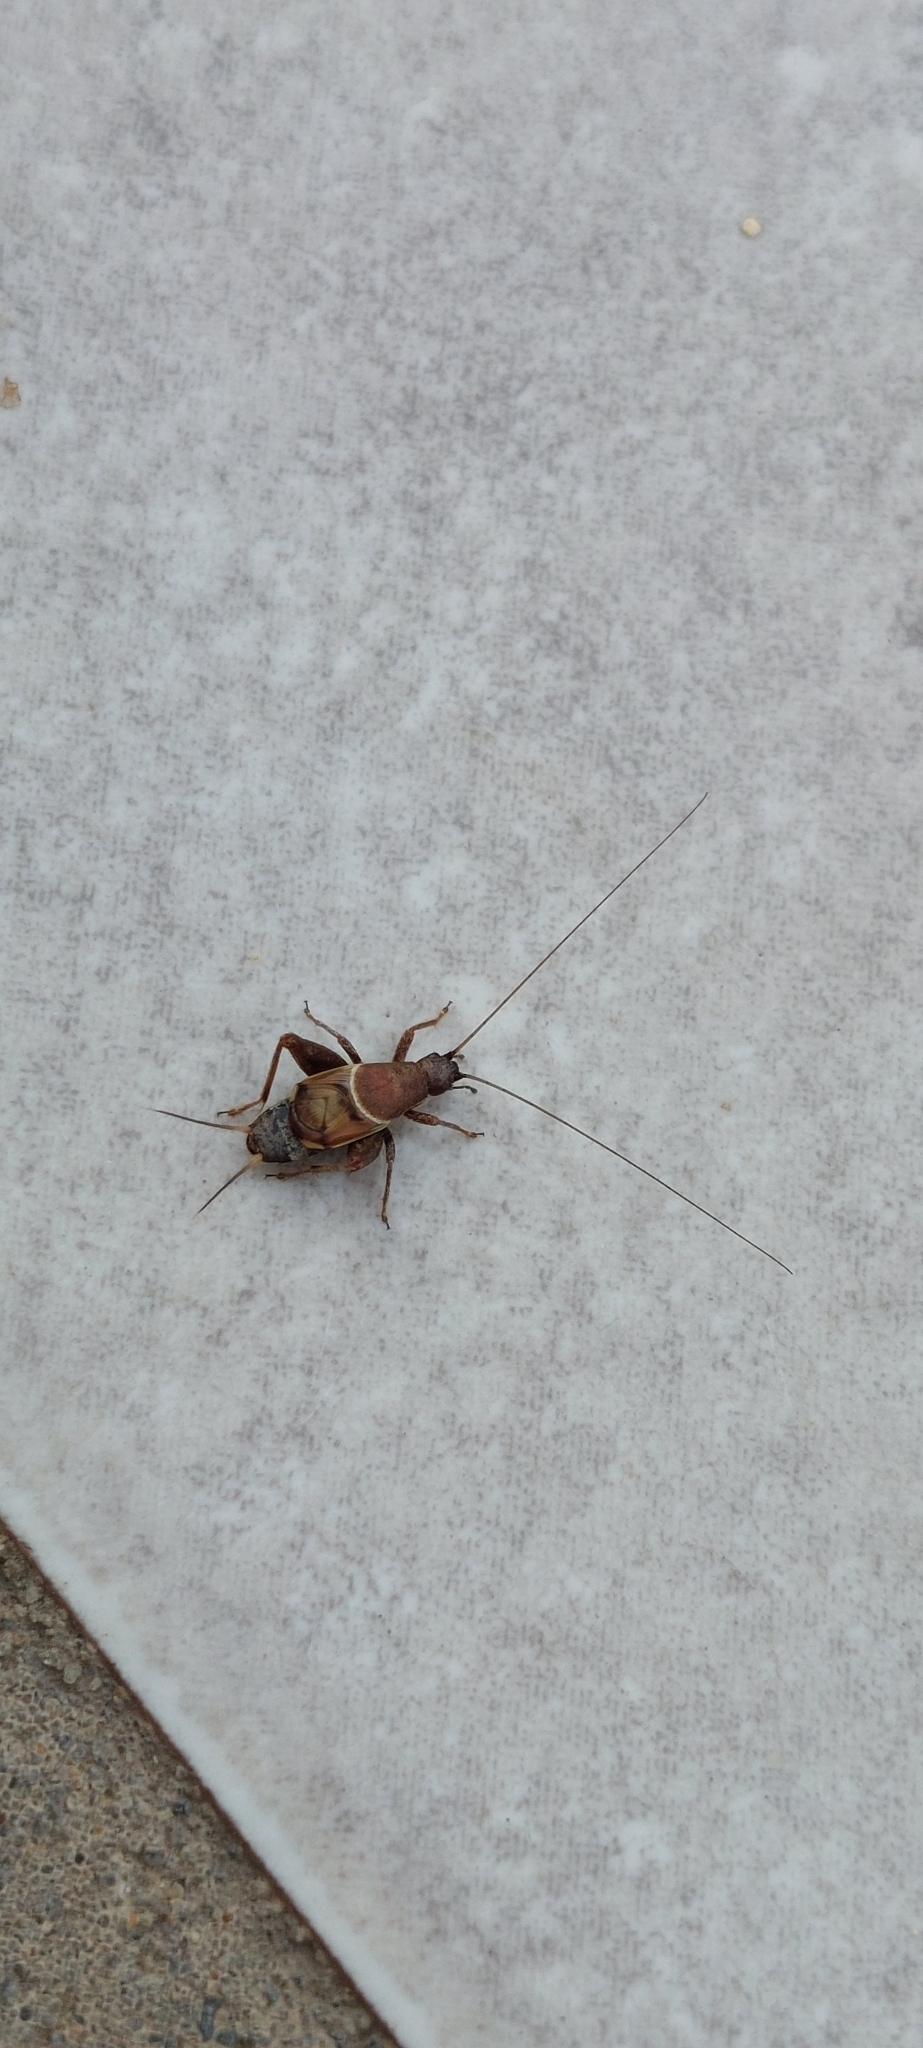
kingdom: Animalia
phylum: Arthropoda
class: Insecta
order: Orthoptera
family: Mogoplistidae
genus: Ornebius
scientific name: Ornebius alatus
